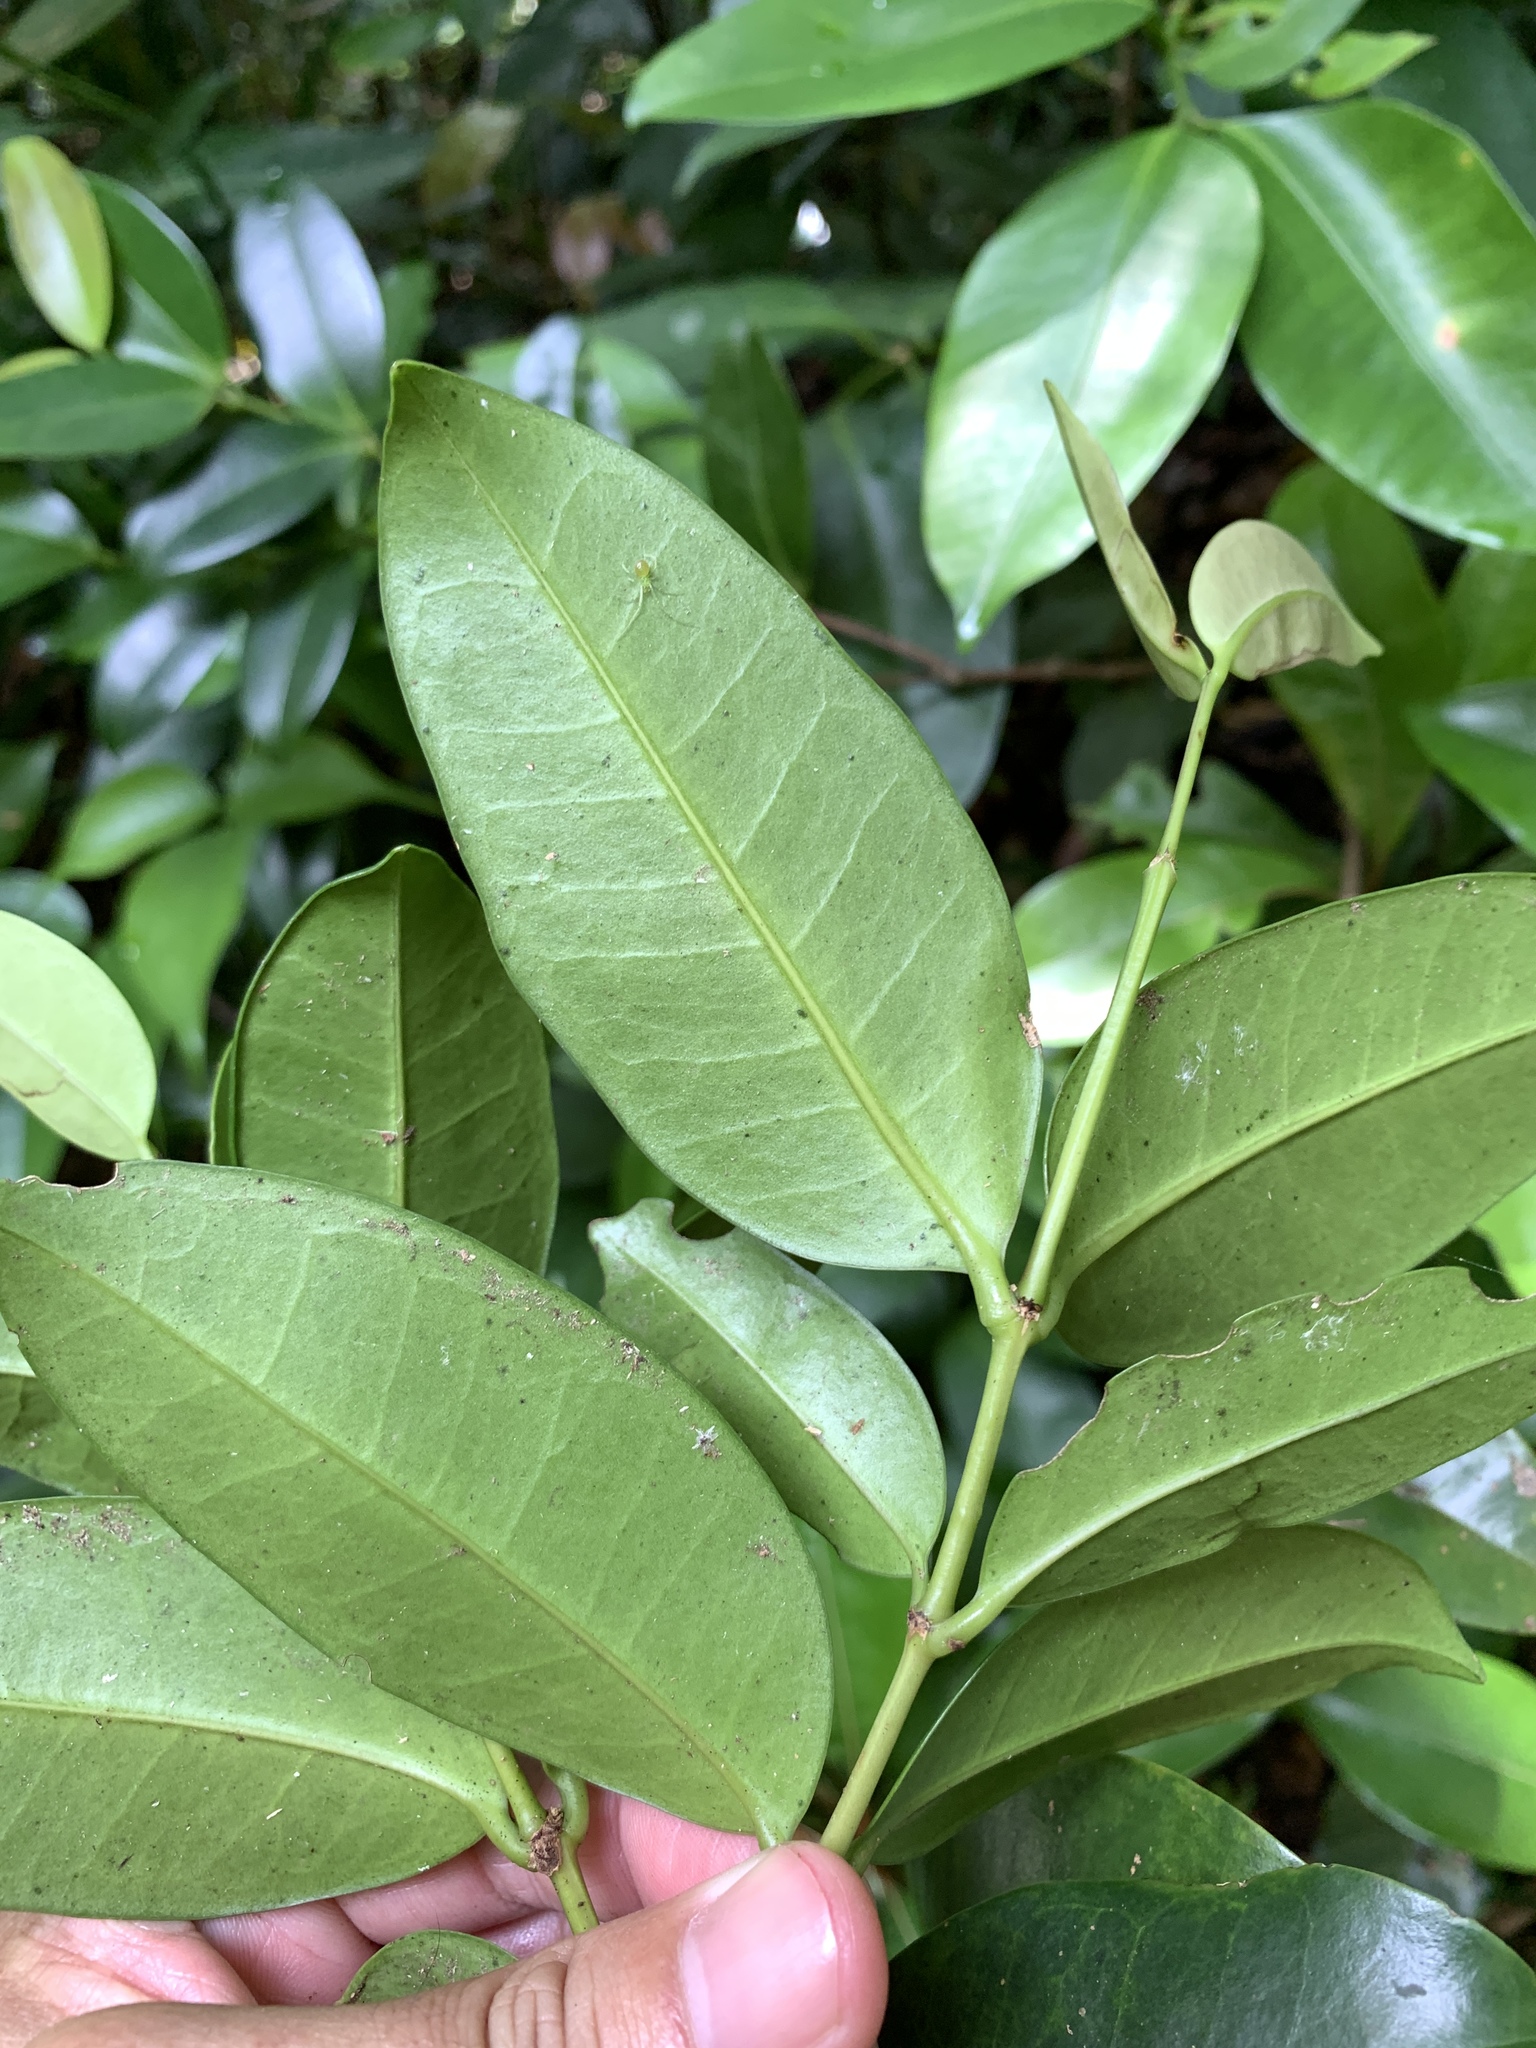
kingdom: Plantae
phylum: Tracheophyta
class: Magnoliopsida
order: Myrtales
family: Melastomataceae
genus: Memecylon
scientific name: Memecylon lanceolatum
